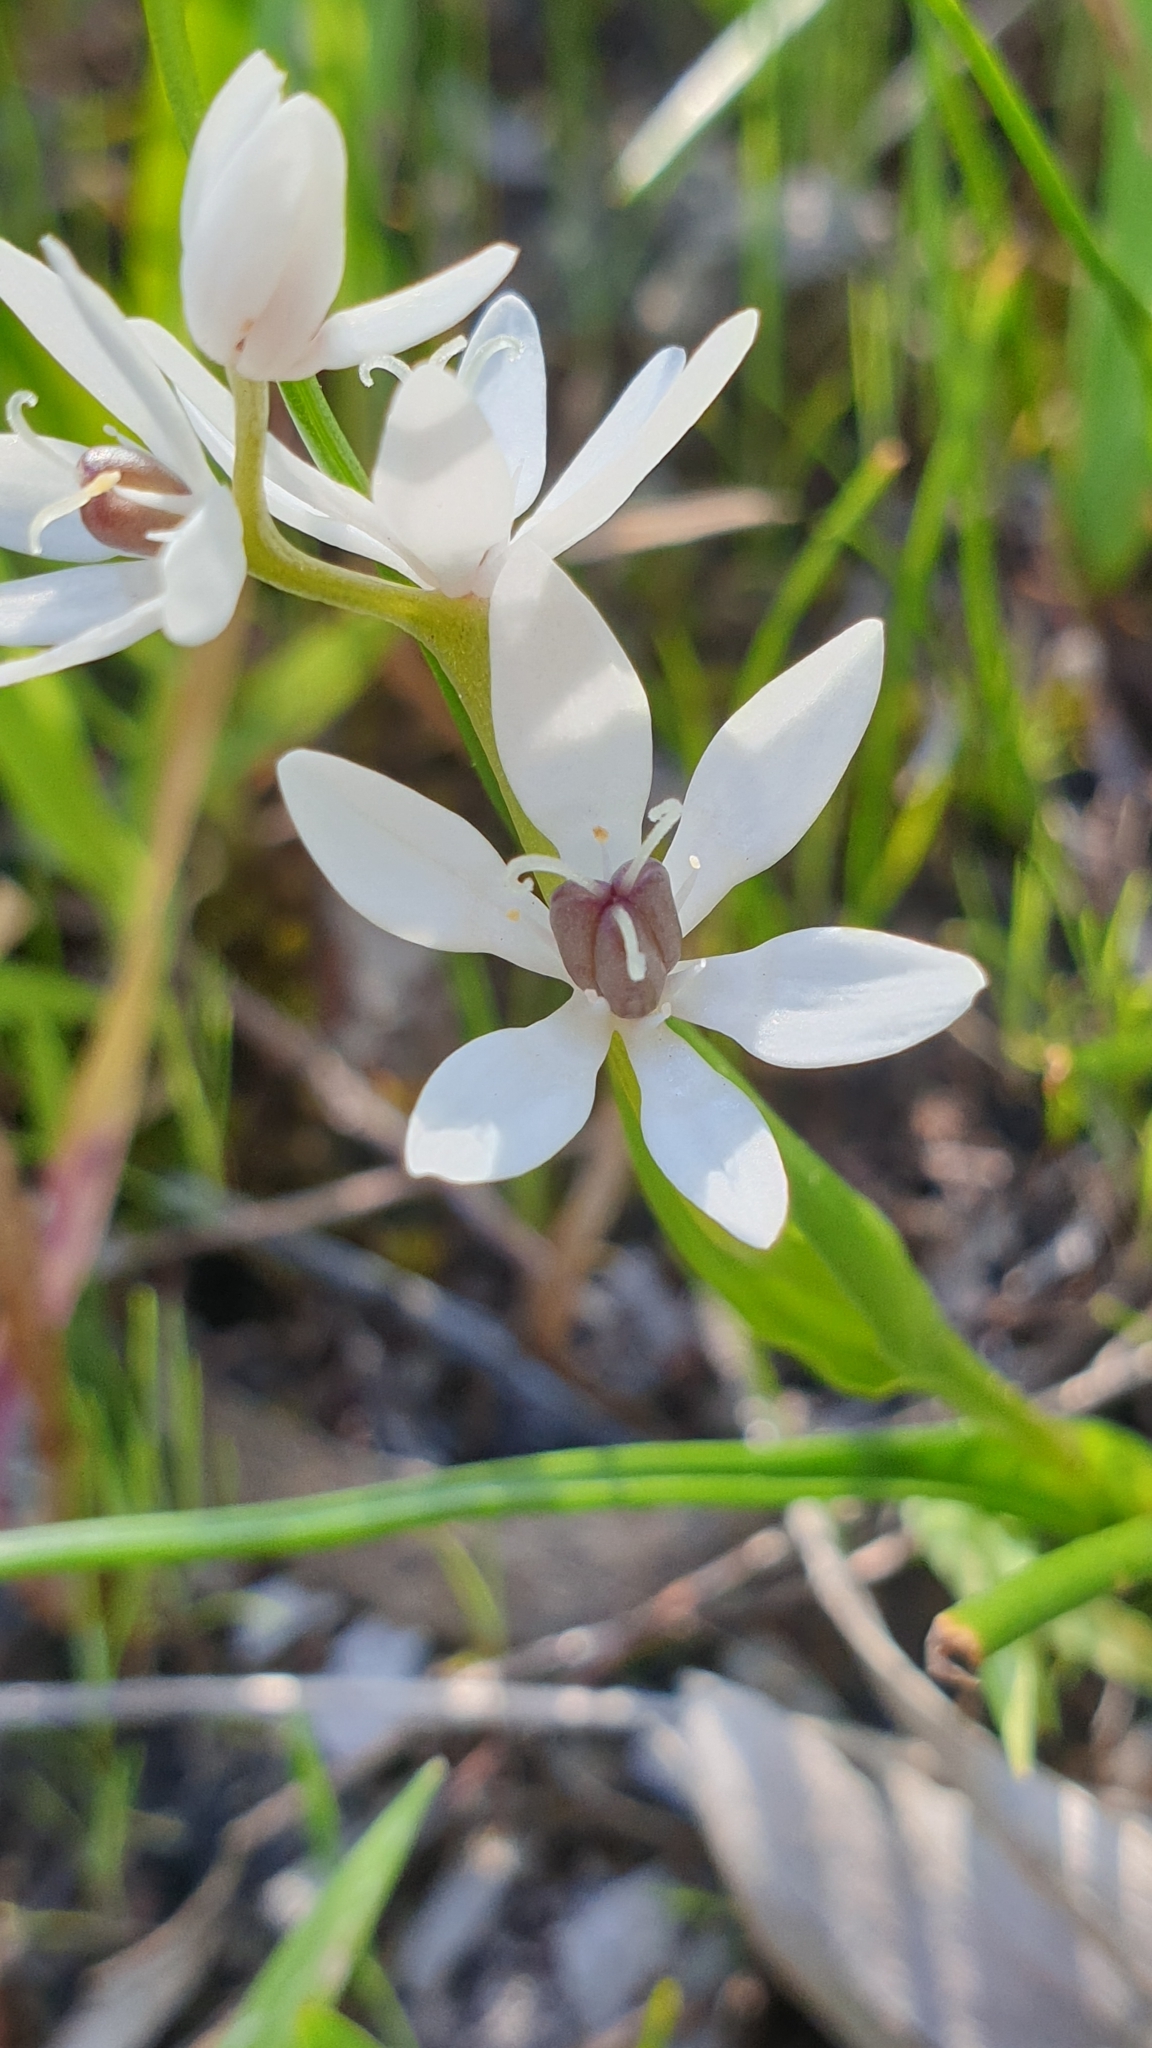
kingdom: Plantae
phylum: Tracheophyta
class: Liliopsida
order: Liliales
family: Colchicaceae
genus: Wurmbea
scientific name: Wurmbea dioica
